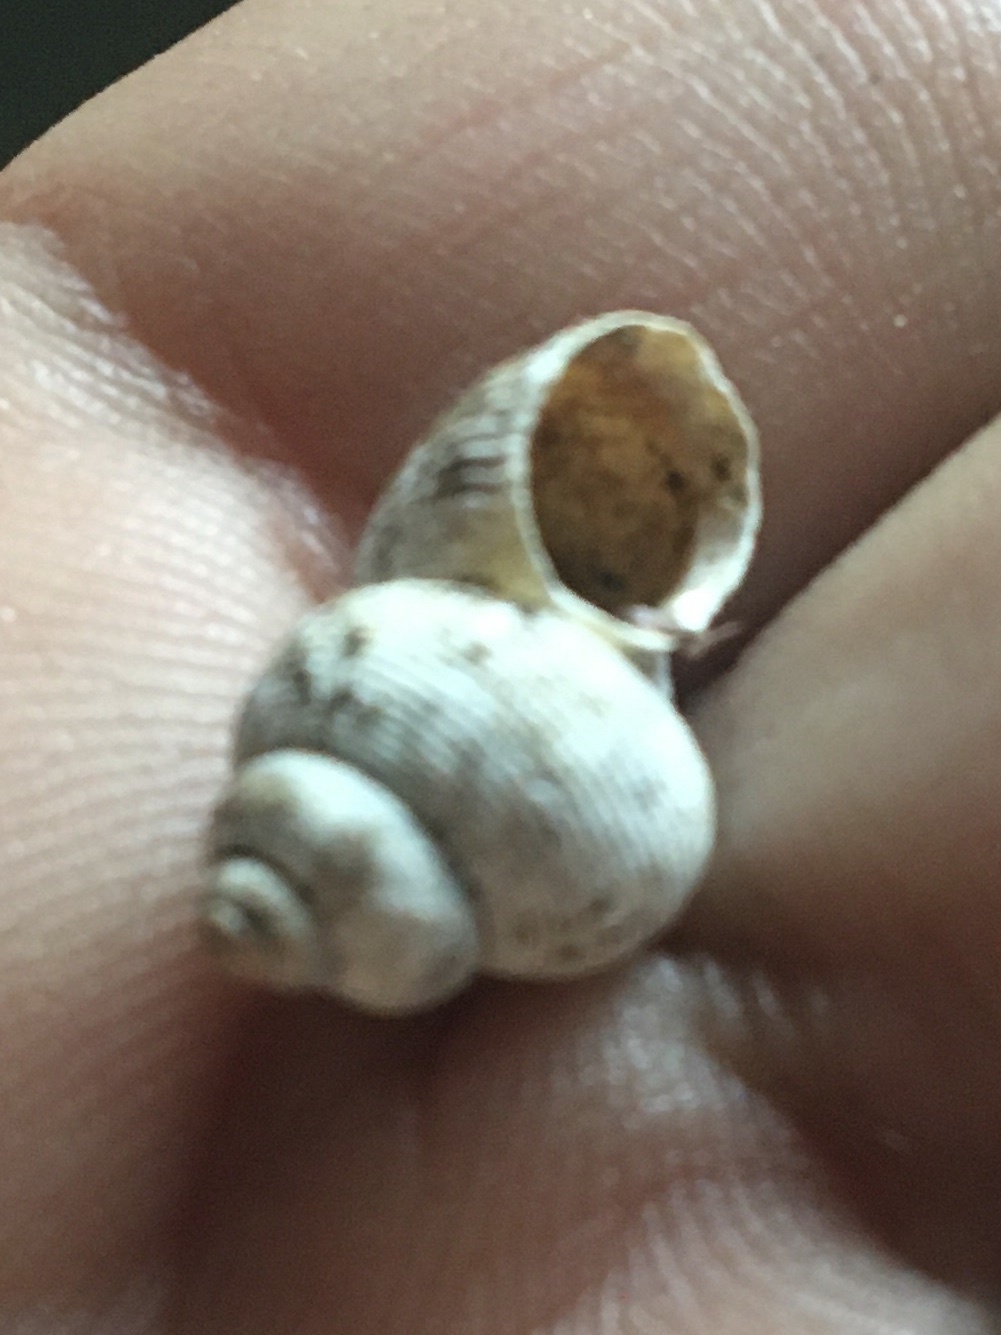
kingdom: Animalia
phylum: Mollusca
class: Gastropoda
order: Littorinimorpha
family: Pomatiidae
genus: Pomatias
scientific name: Pomatias elegans
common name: Red-mouthed snail
